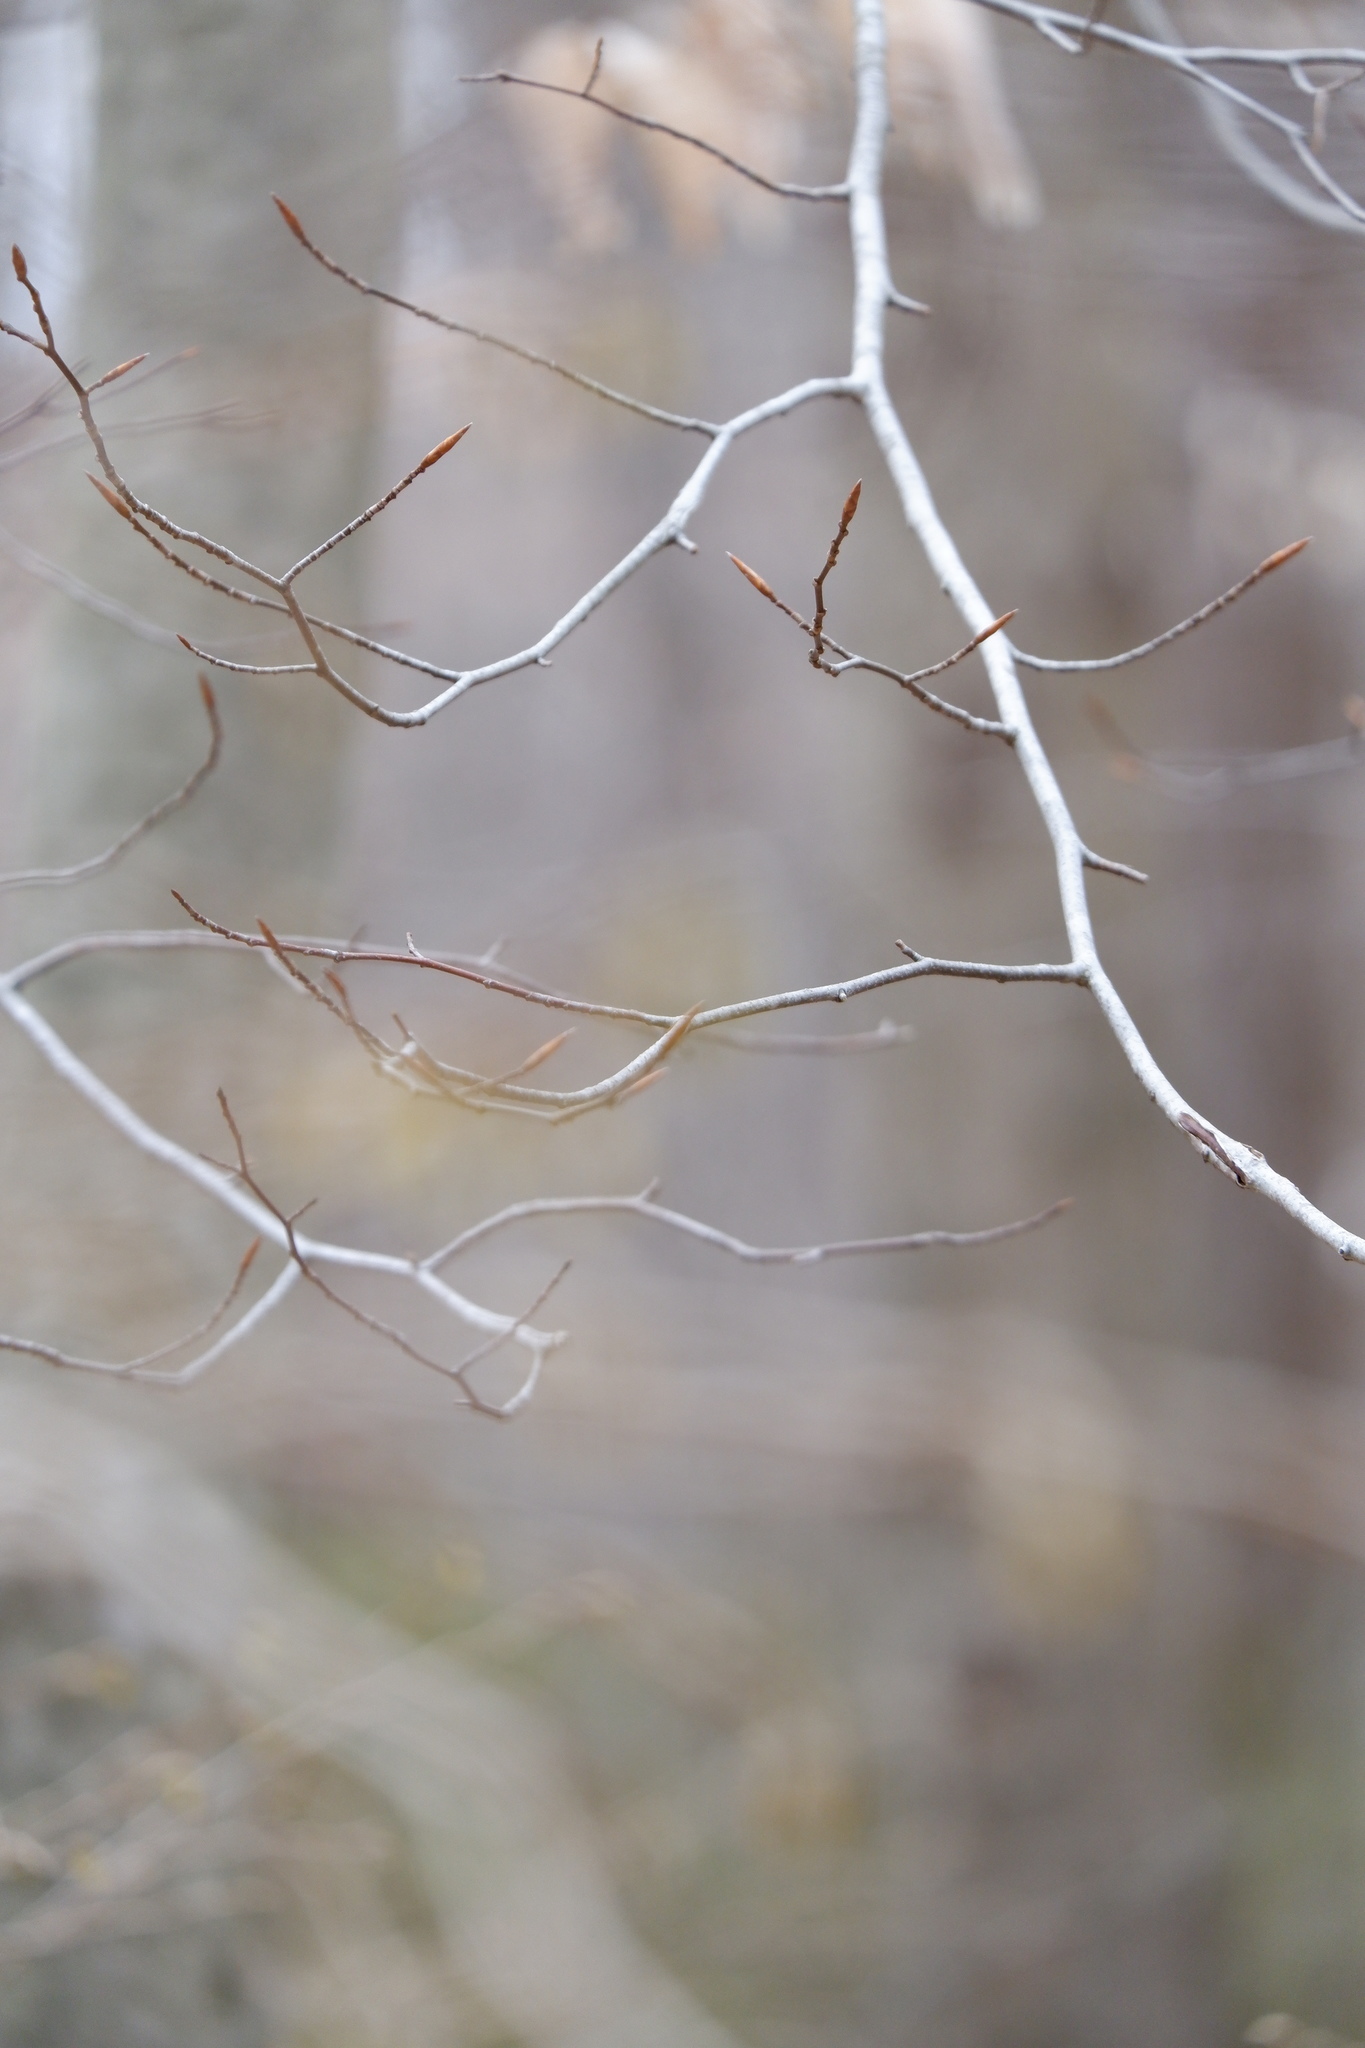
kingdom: Plantae
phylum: Tracheophyta
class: Magnoliopsida
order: Fagales
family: Fagaceae
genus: Fagus
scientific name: Fagus grandifolia
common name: American beech
